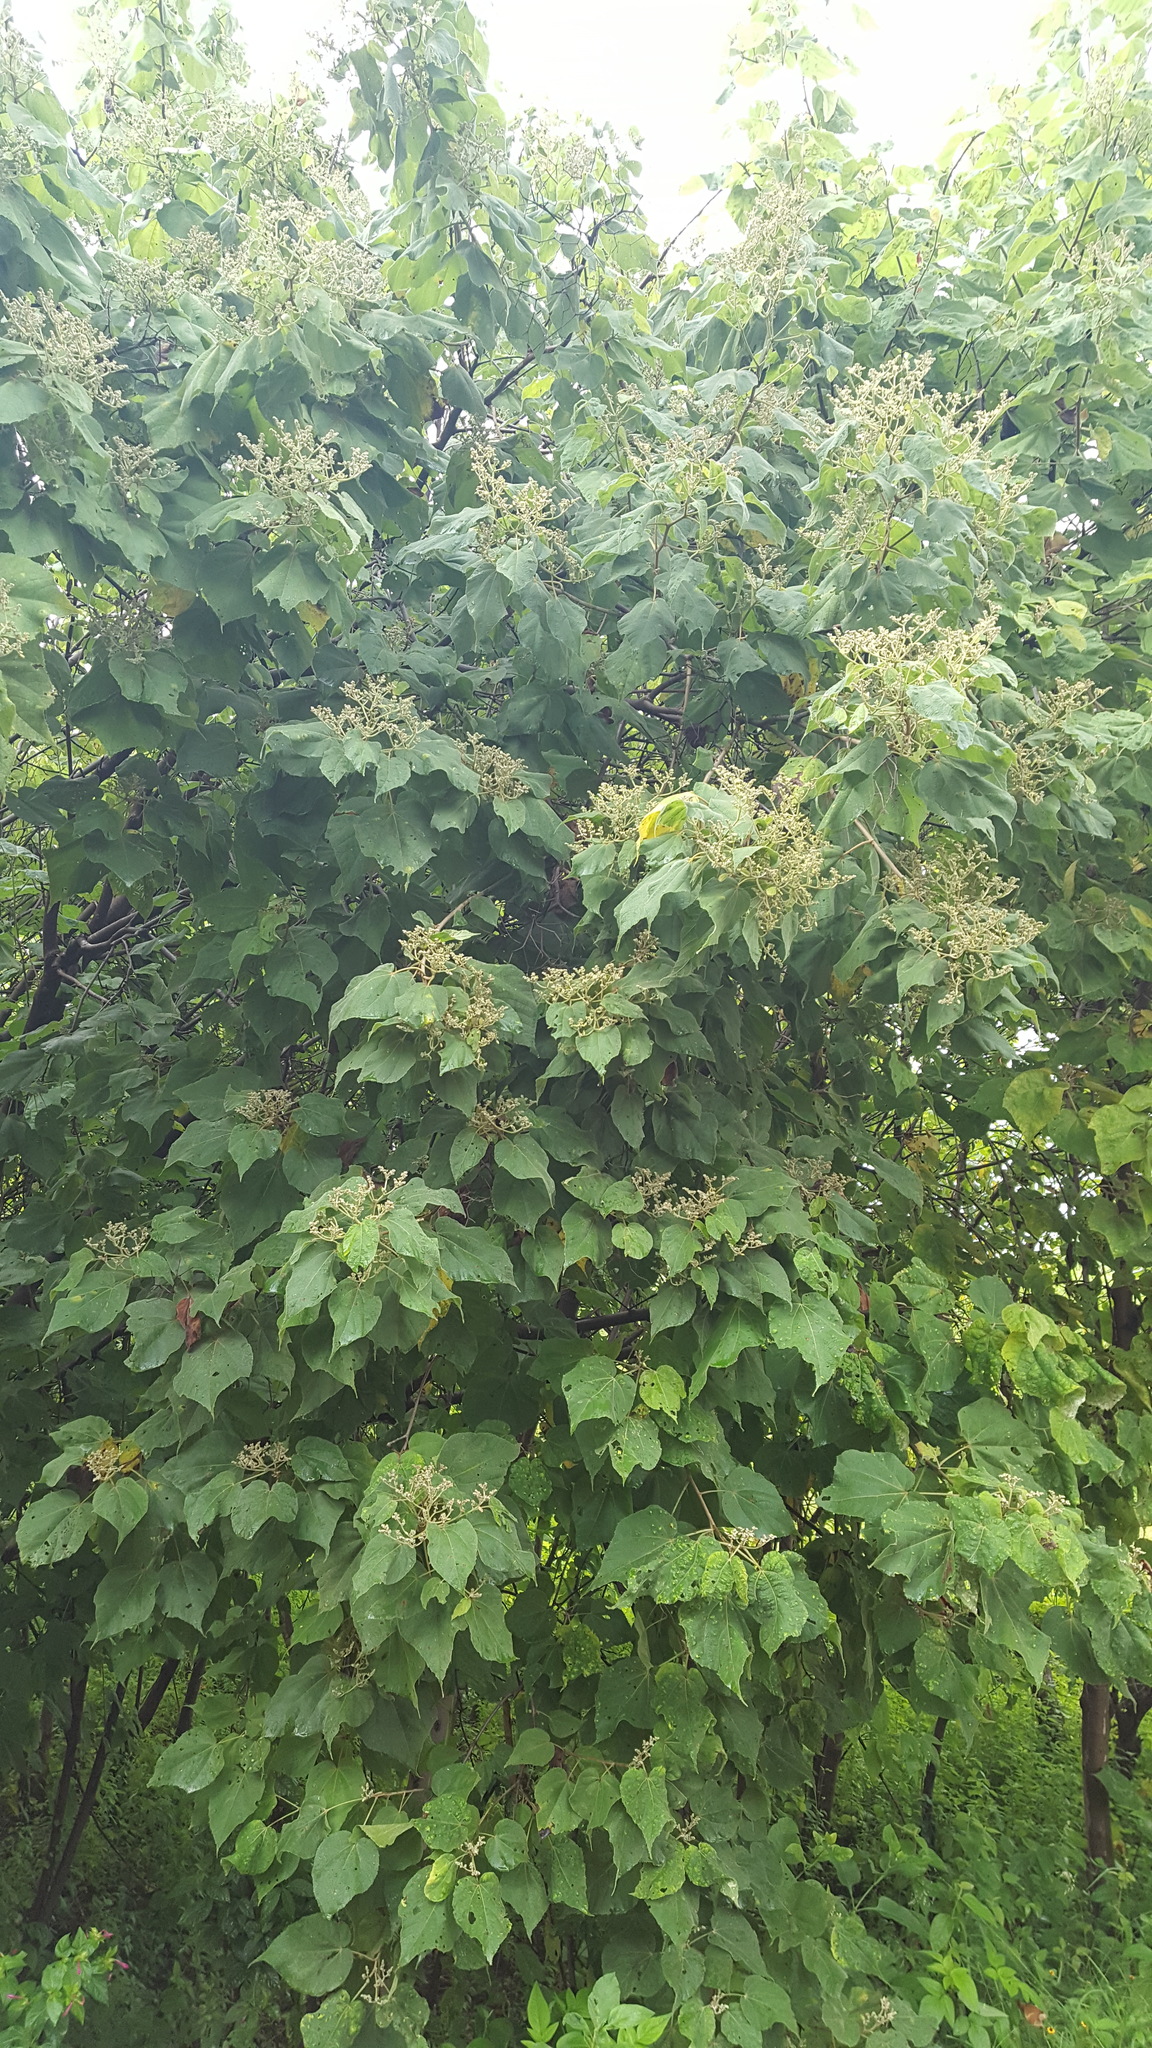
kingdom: Plantae
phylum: Tracheophyta
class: Magnoliopsida
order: Malvales
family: Malvaceae
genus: Heliocarpus
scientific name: Heliocarpus terebinthinaceus
